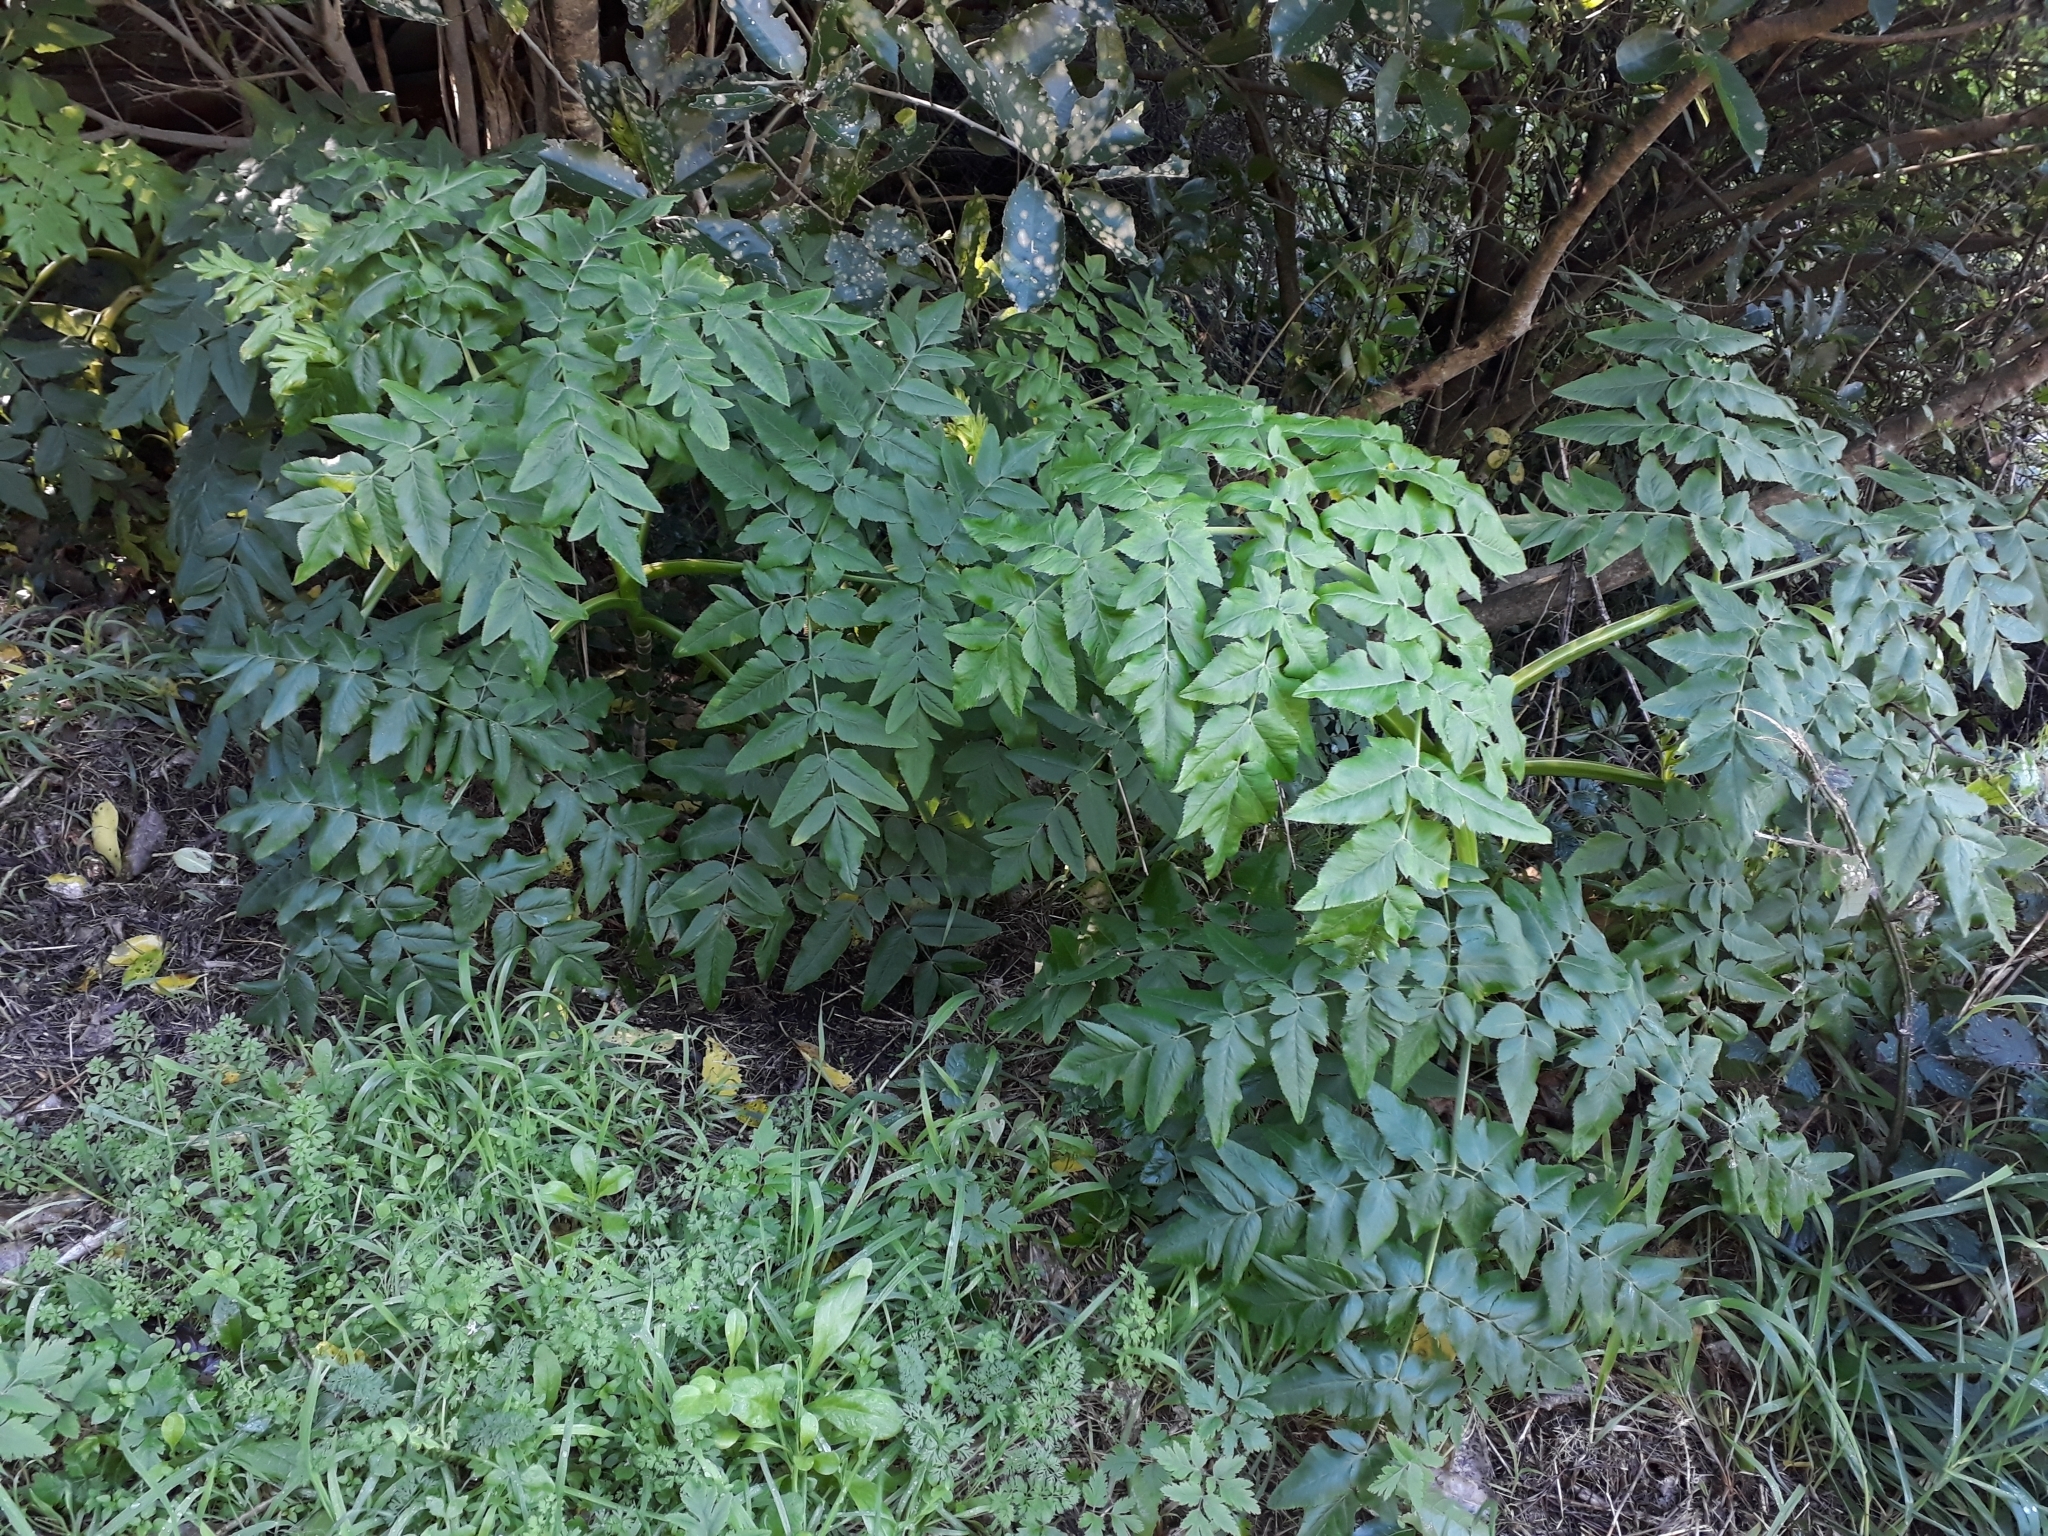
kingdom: Plantae
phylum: Tracheophyta
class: Magnoliopsida
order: Apiales
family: Apiaceae
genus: Daucus
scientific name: Daucus decipiens
